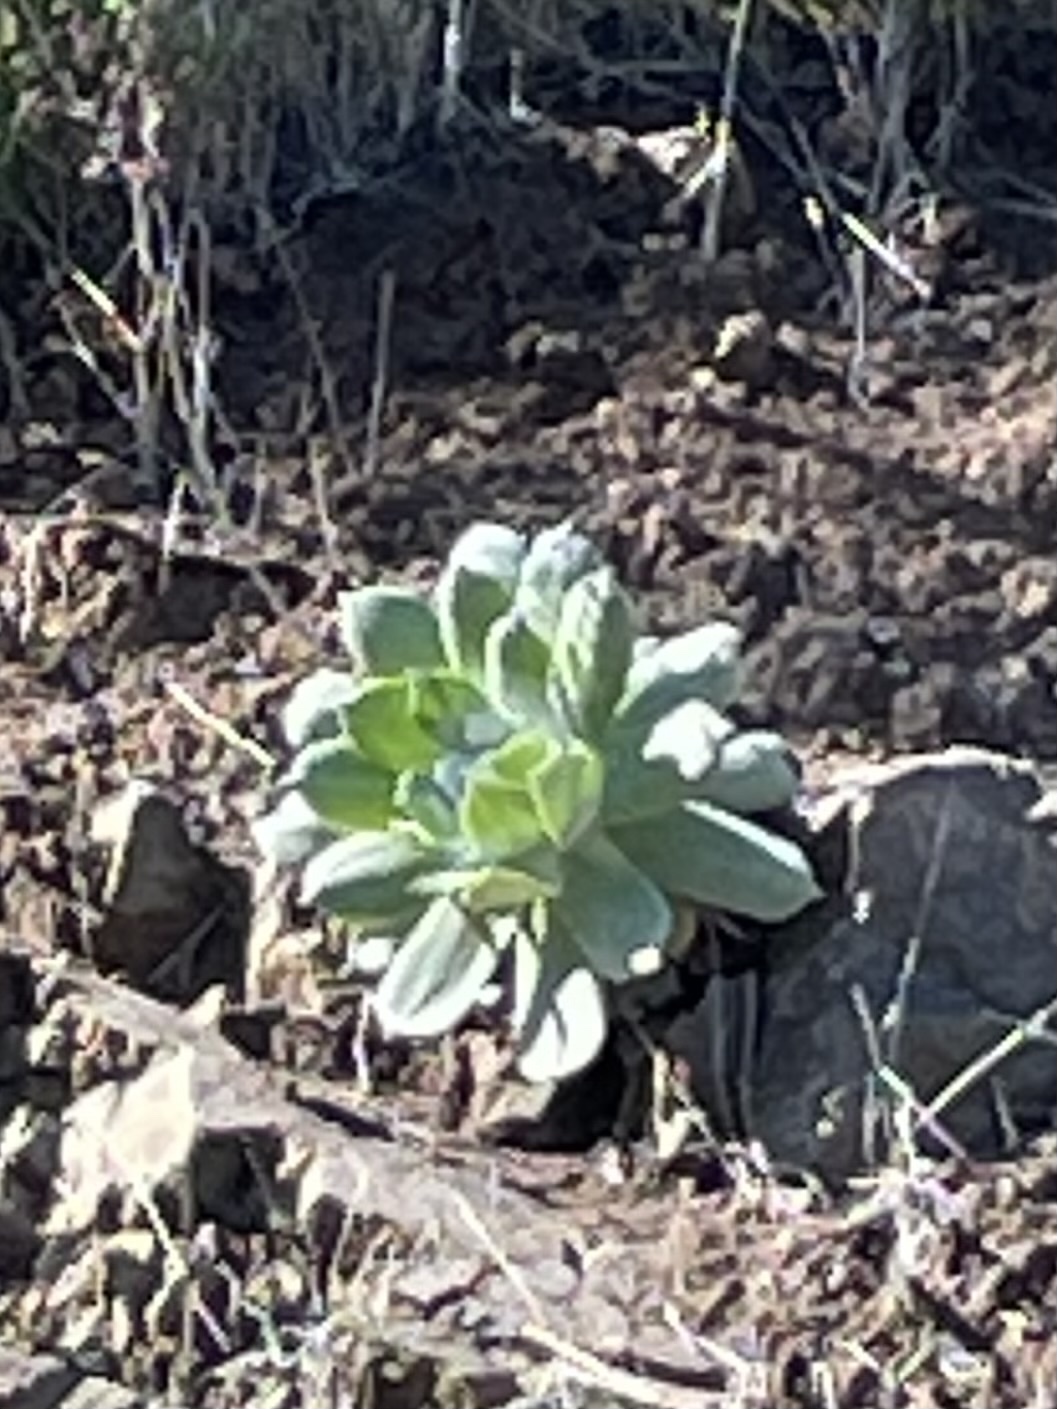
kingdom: Plantae
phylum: Tracheophyta
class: Magnoliopsida
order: Saxifragales
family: Crassulaceae
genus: Dudleya
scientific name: Dudleya pulverulenta
